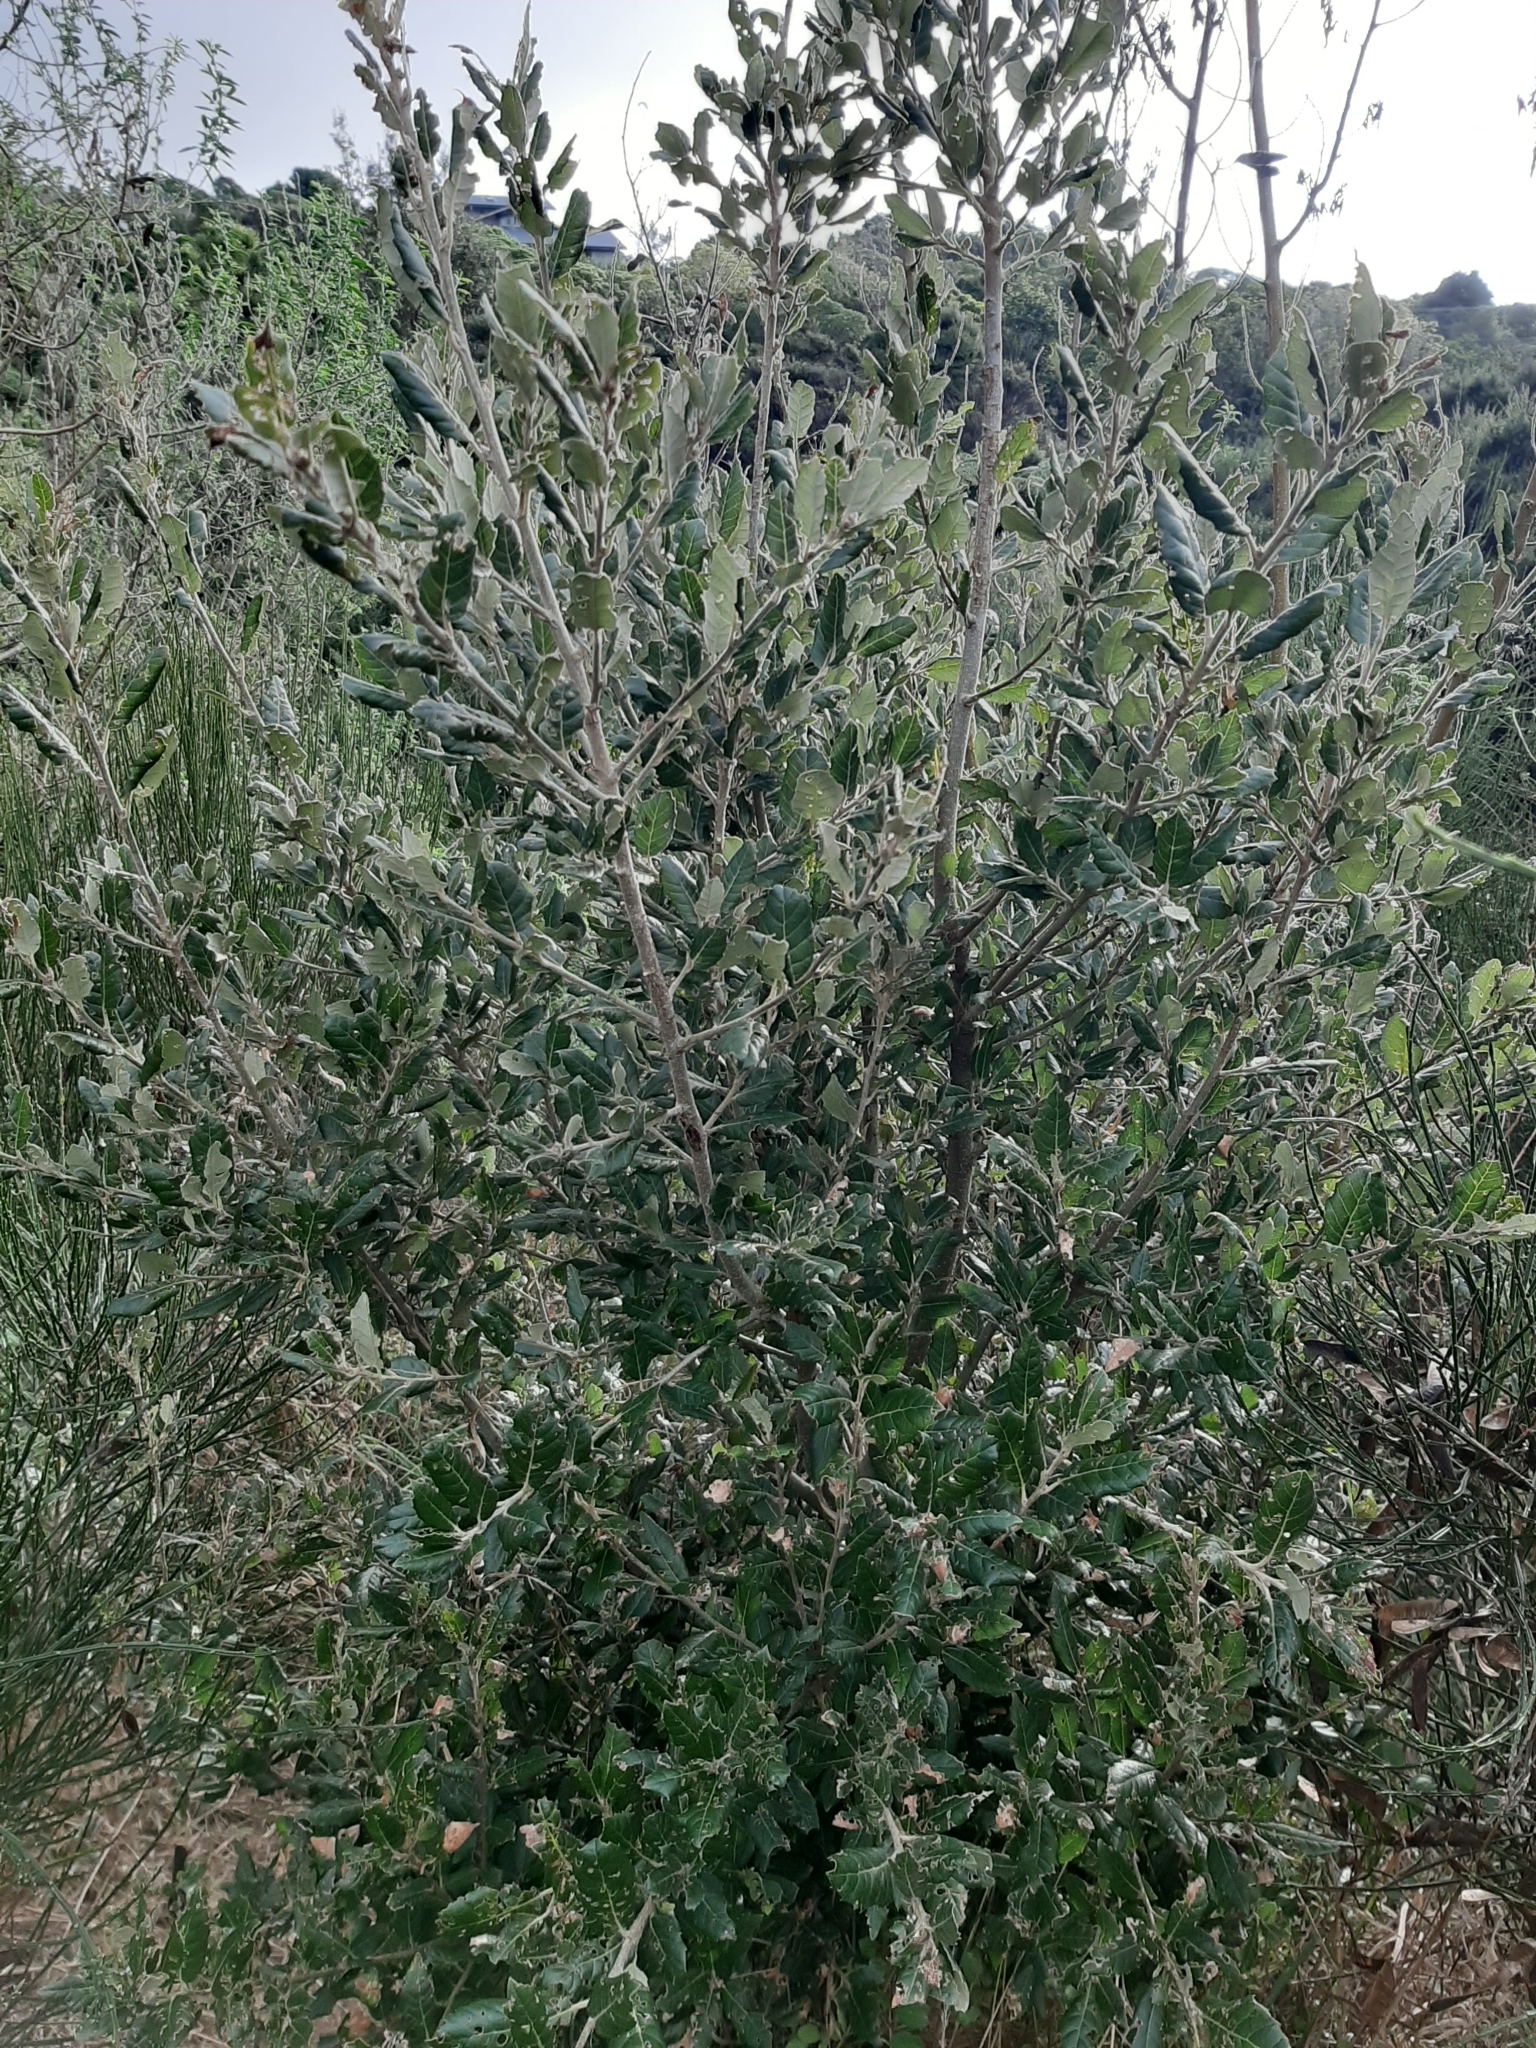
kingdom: Plantae
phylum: Tracheophyta
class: Magnoliopsida
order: Fagales
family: Fagaceae
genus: Quercus
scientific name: Quercus ilex
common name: Evergreen oak
